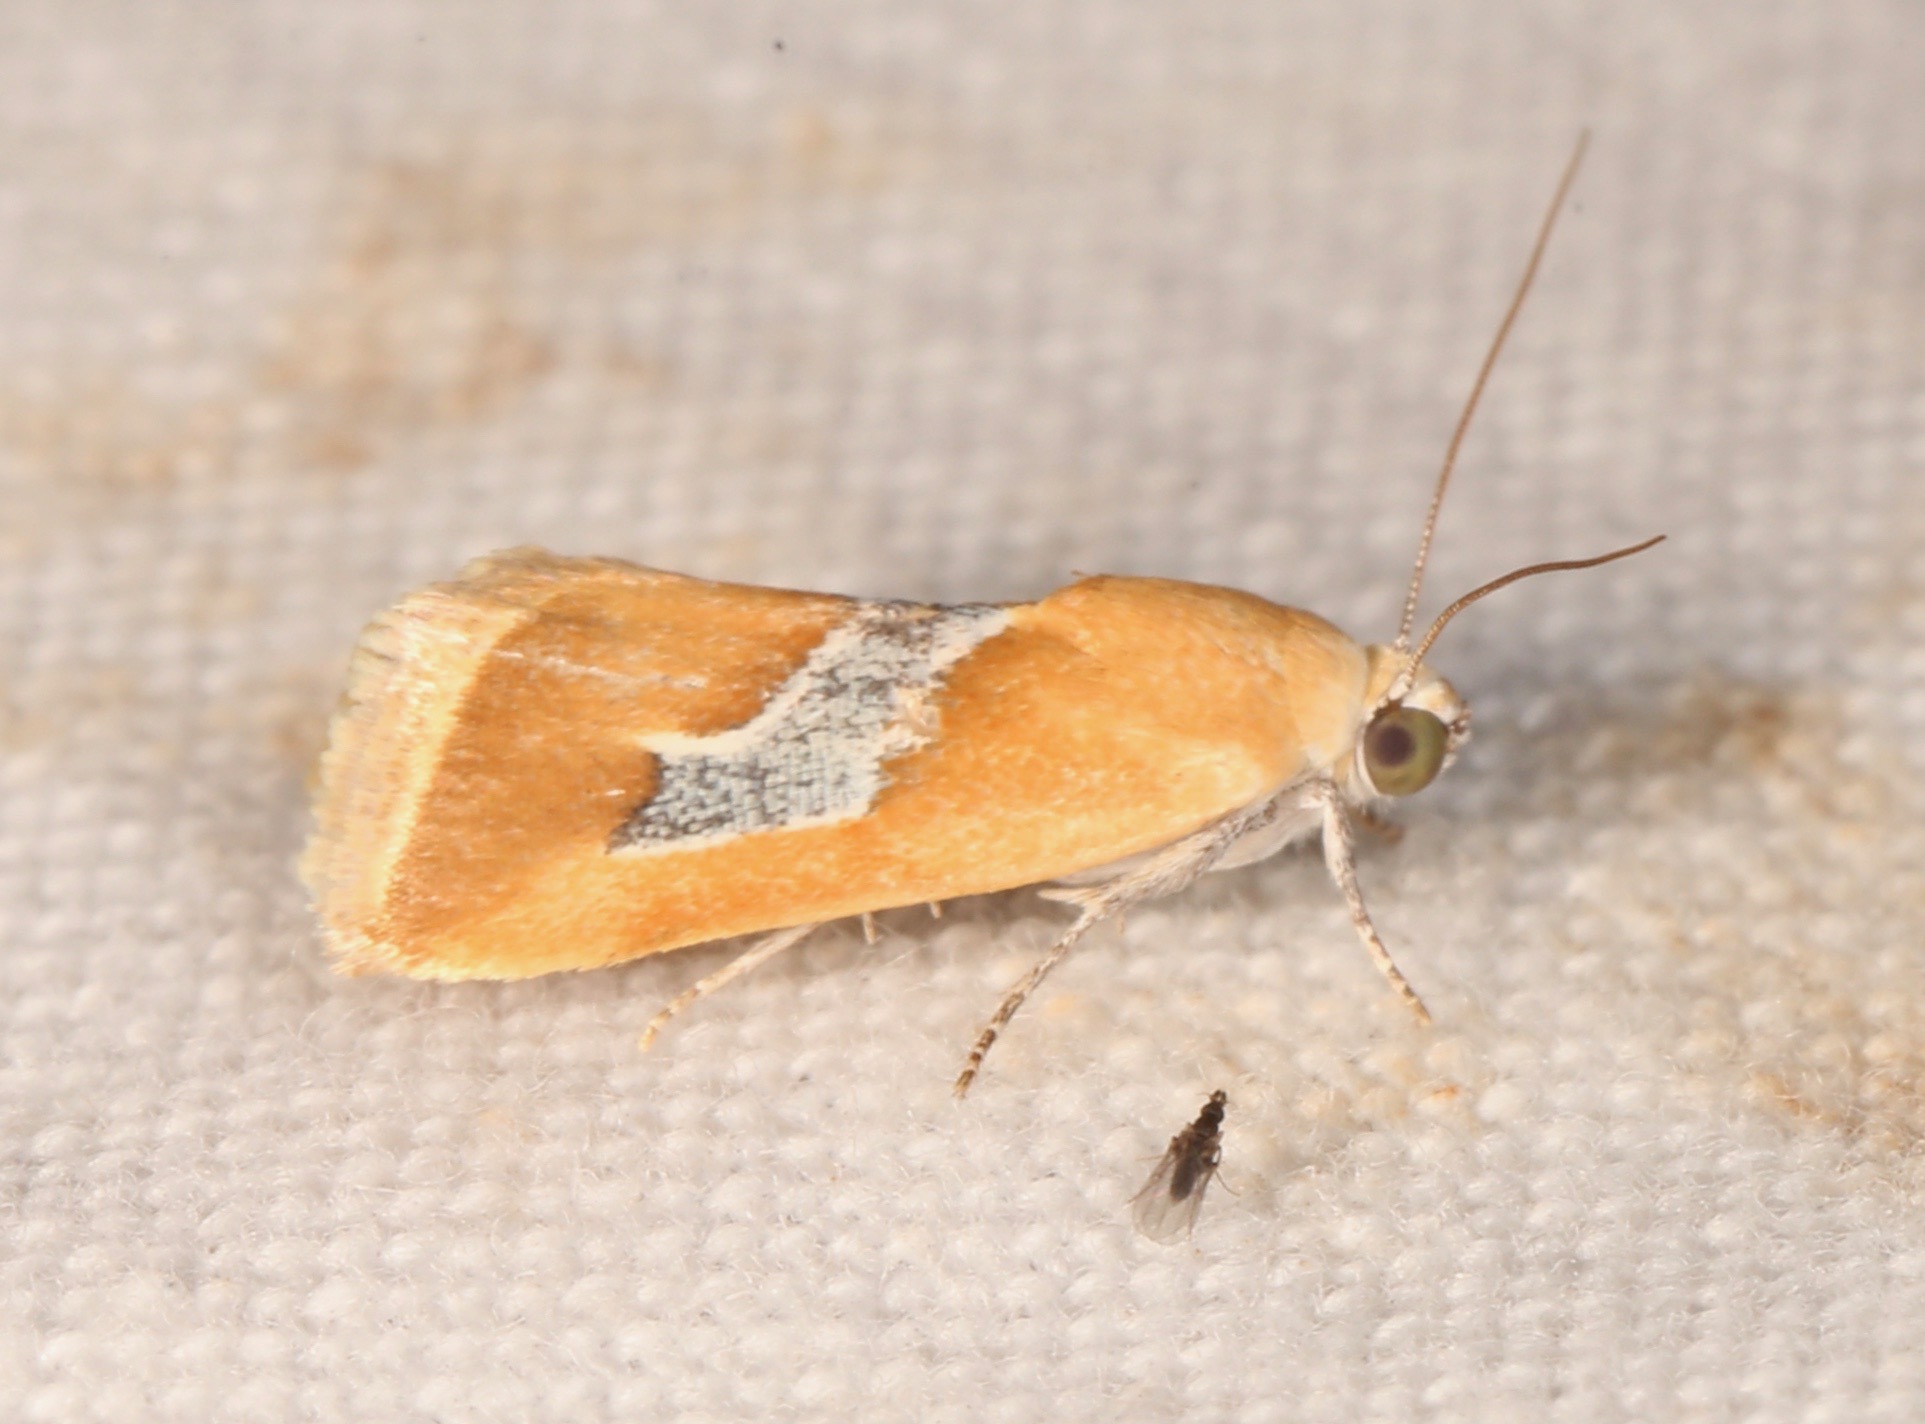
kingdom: Animalia
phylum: Arthropoda
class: Insecta
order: Lepidoptera
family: Noctuidae
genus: Ponometia
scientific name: Ponometia venustula
